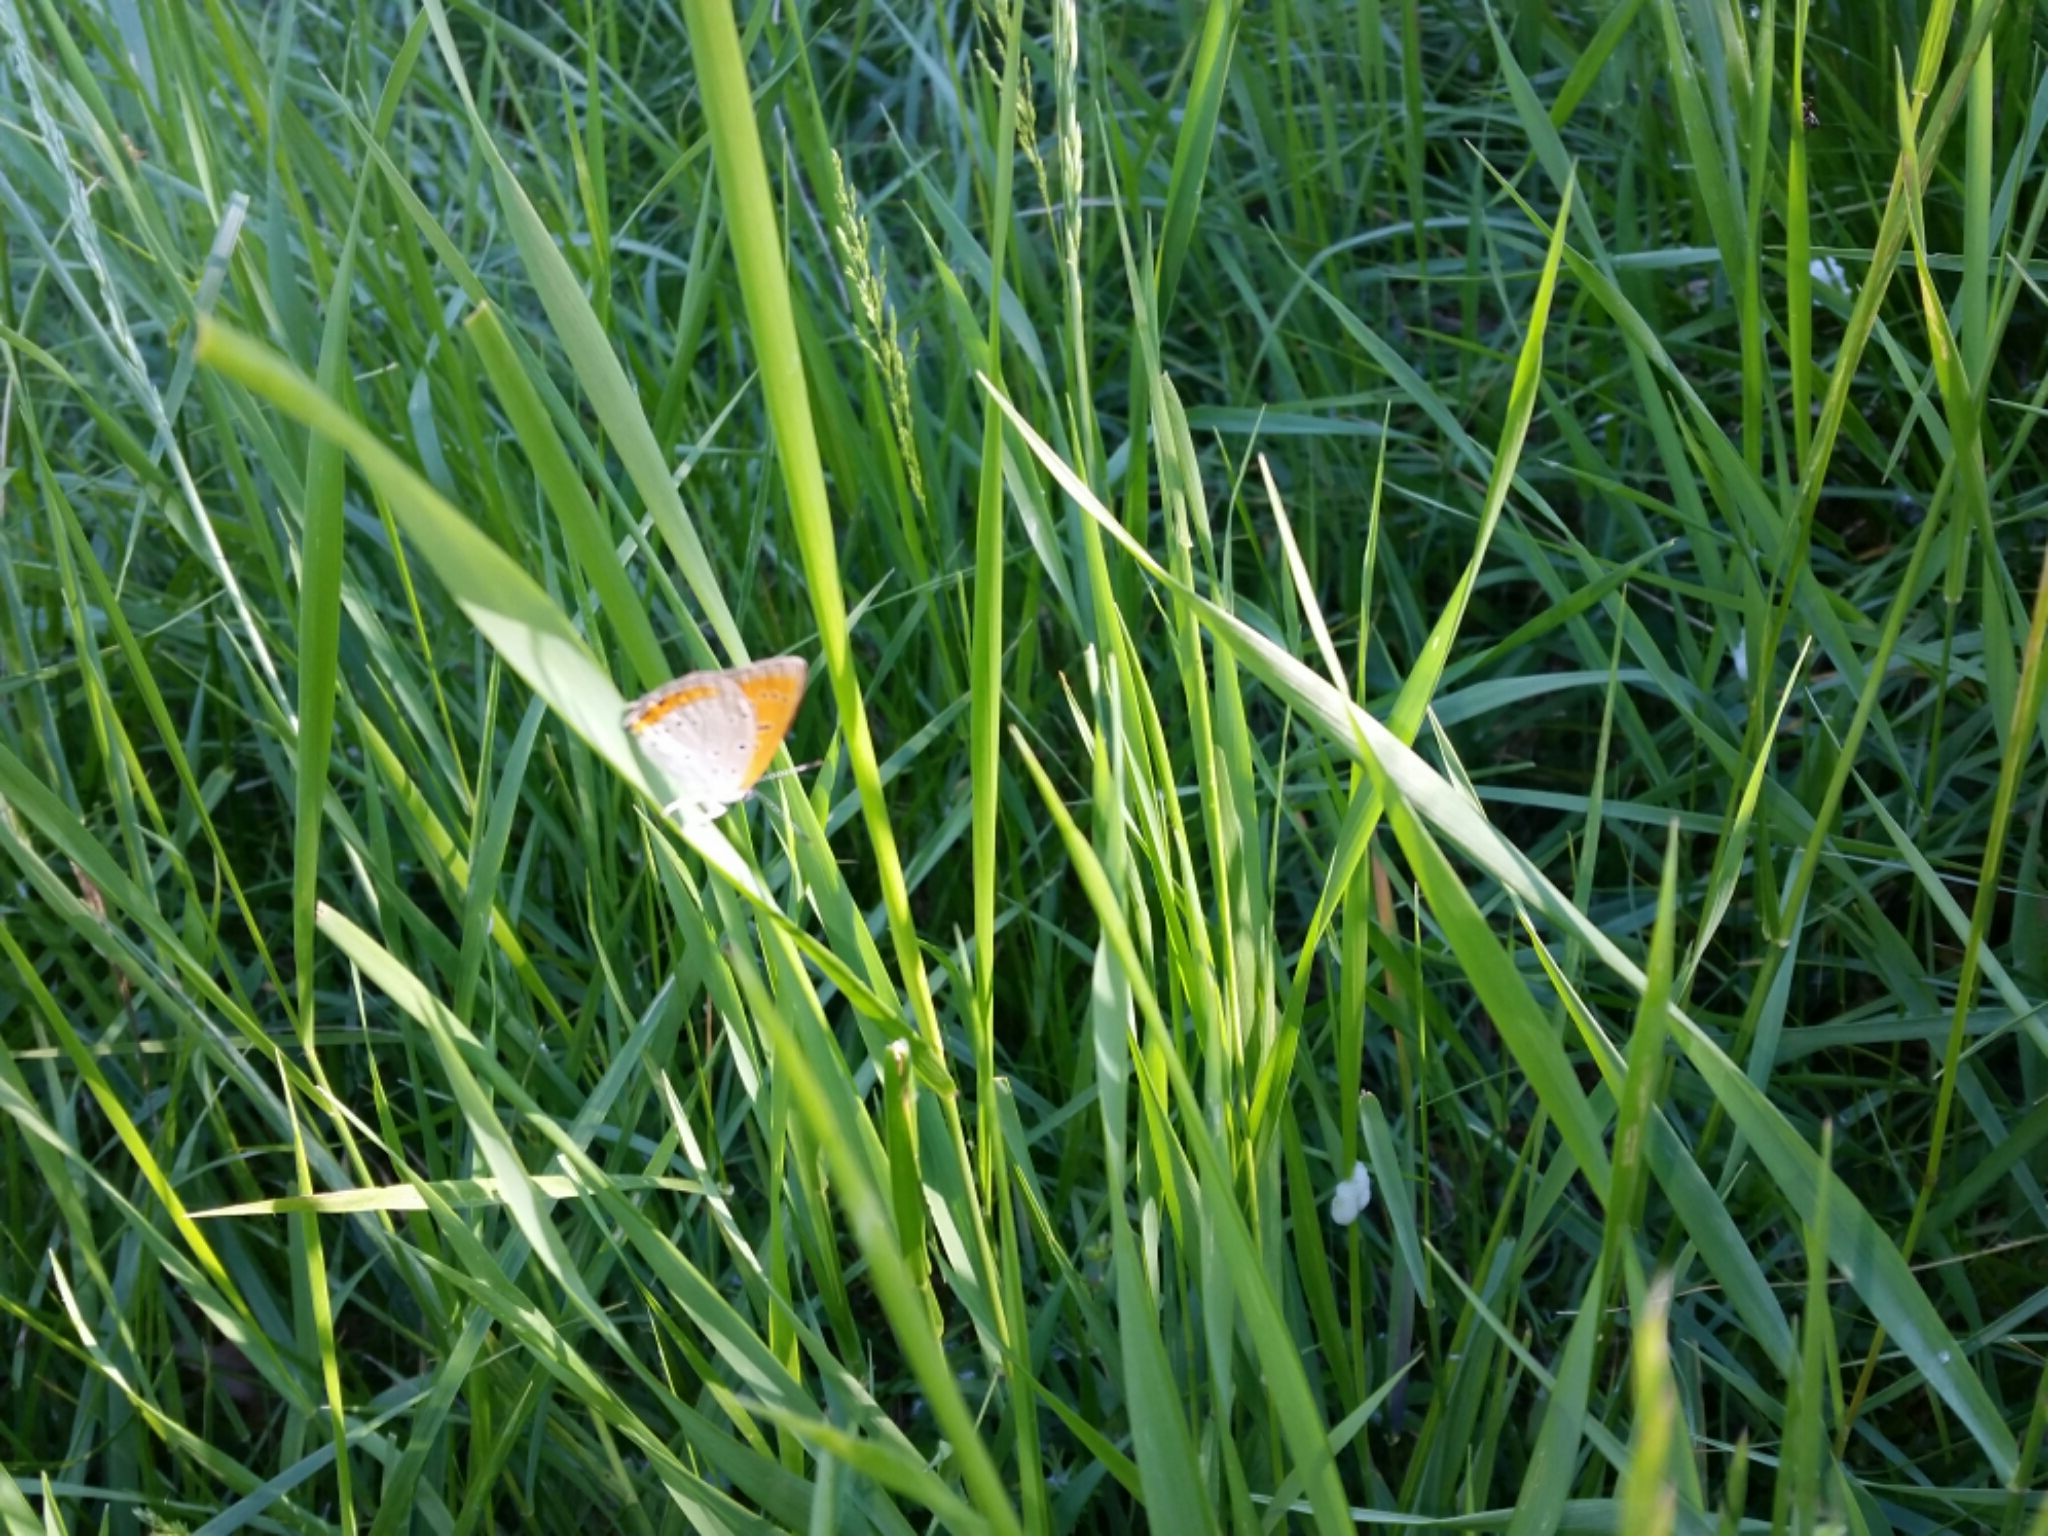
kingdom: Animalia
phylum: Arthropoda
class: Insecta
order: Lepidoptera
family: Lycaenidae
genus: Lycaena
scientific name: Lycaena dispar
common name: Large copper
